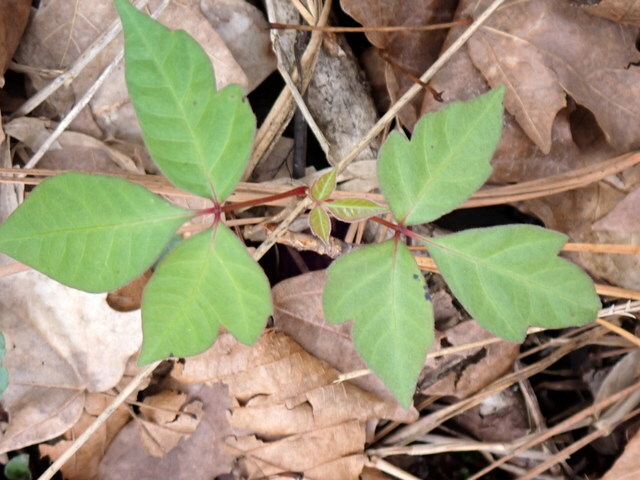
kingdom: Plantae
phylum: Tracheophyta
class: Magnoliopsida
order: Sapindales
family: Anacardiaceae
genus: Toxicodendron
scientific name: Toxicodendron radicans
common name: Poison ivy
